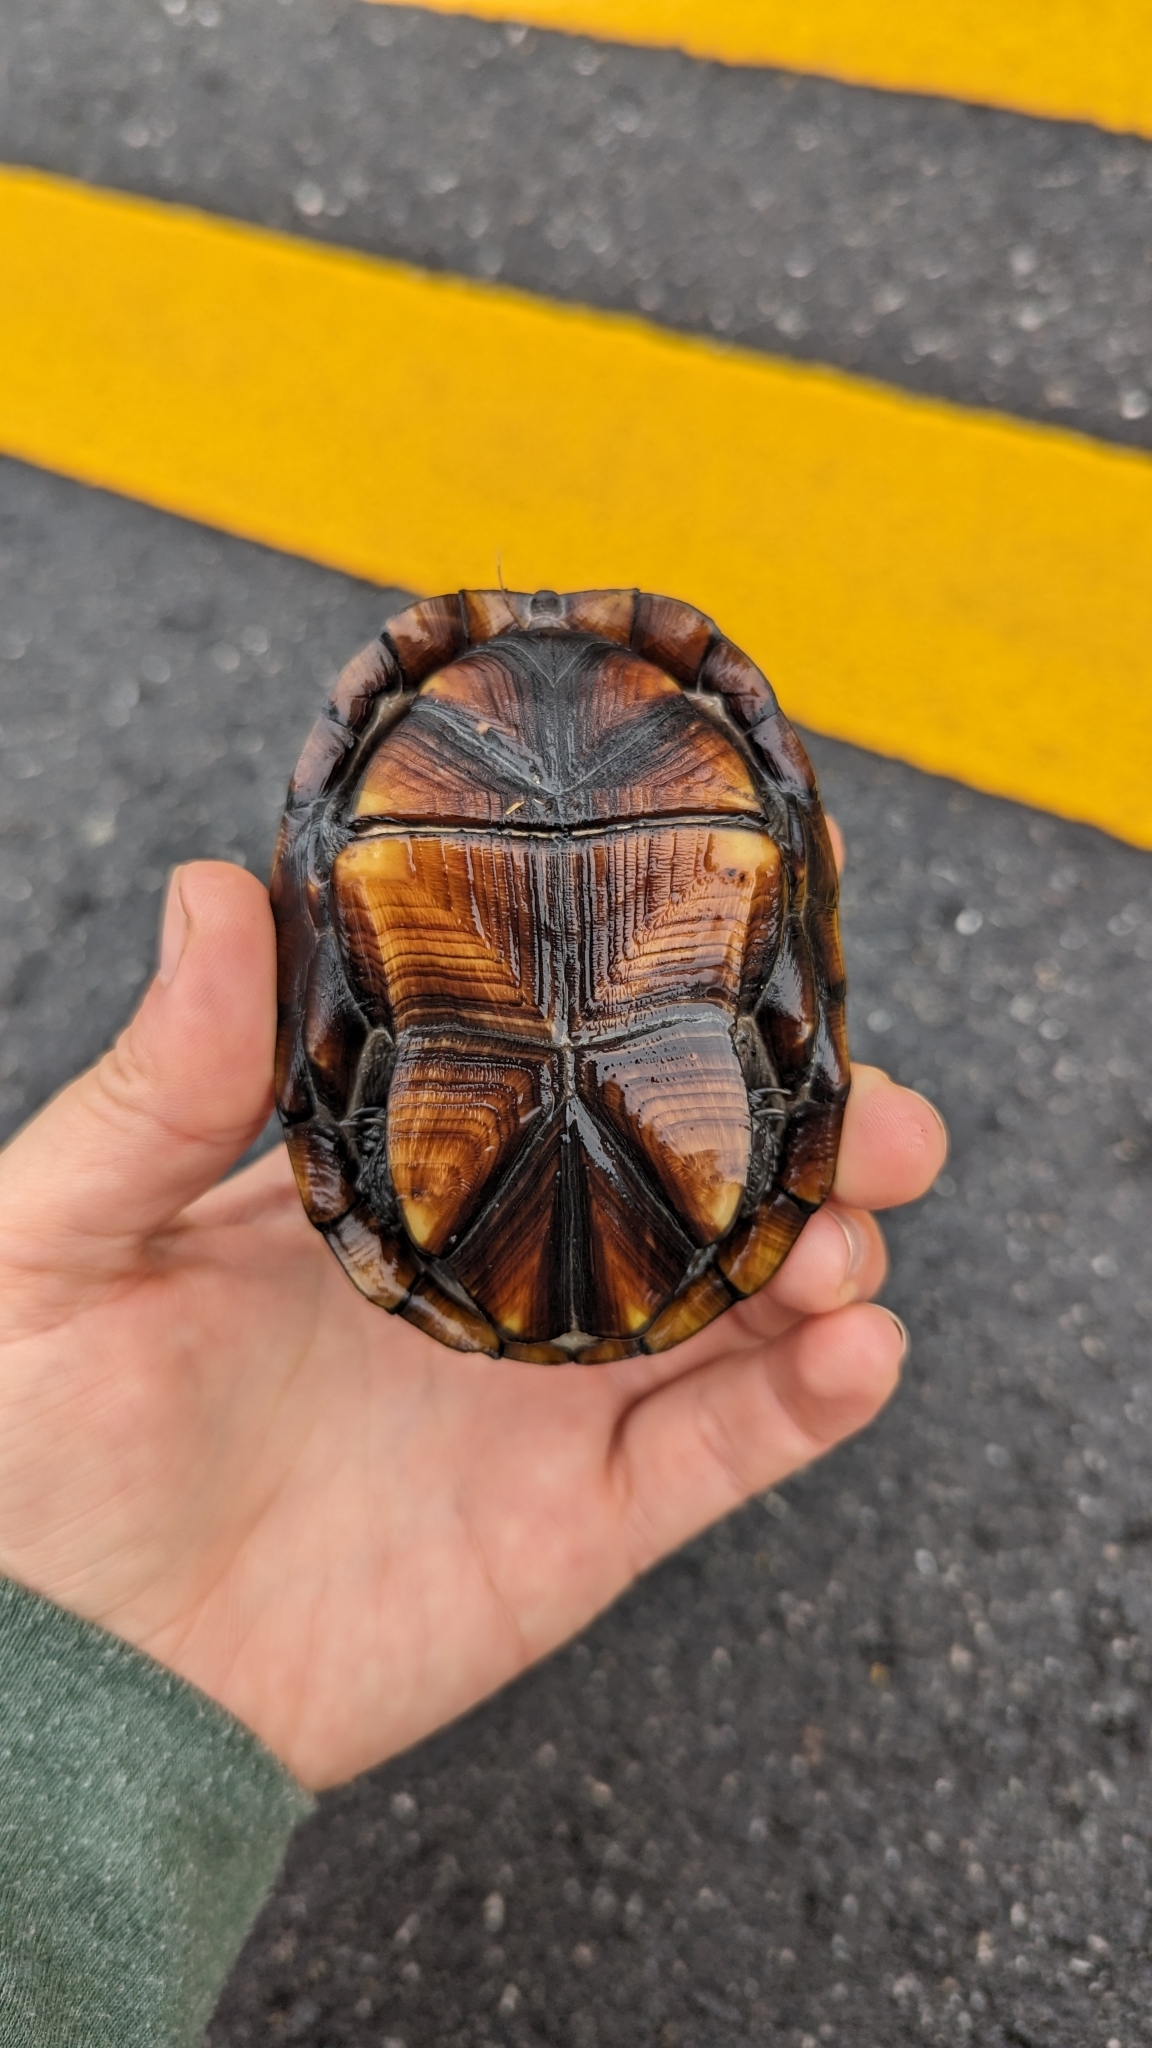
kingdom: Animalia
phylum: Chordata
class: Testudines
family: Kinosternidae
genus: Kinosternon
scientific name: Kinosternon baurii
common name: Striped mud turtle
